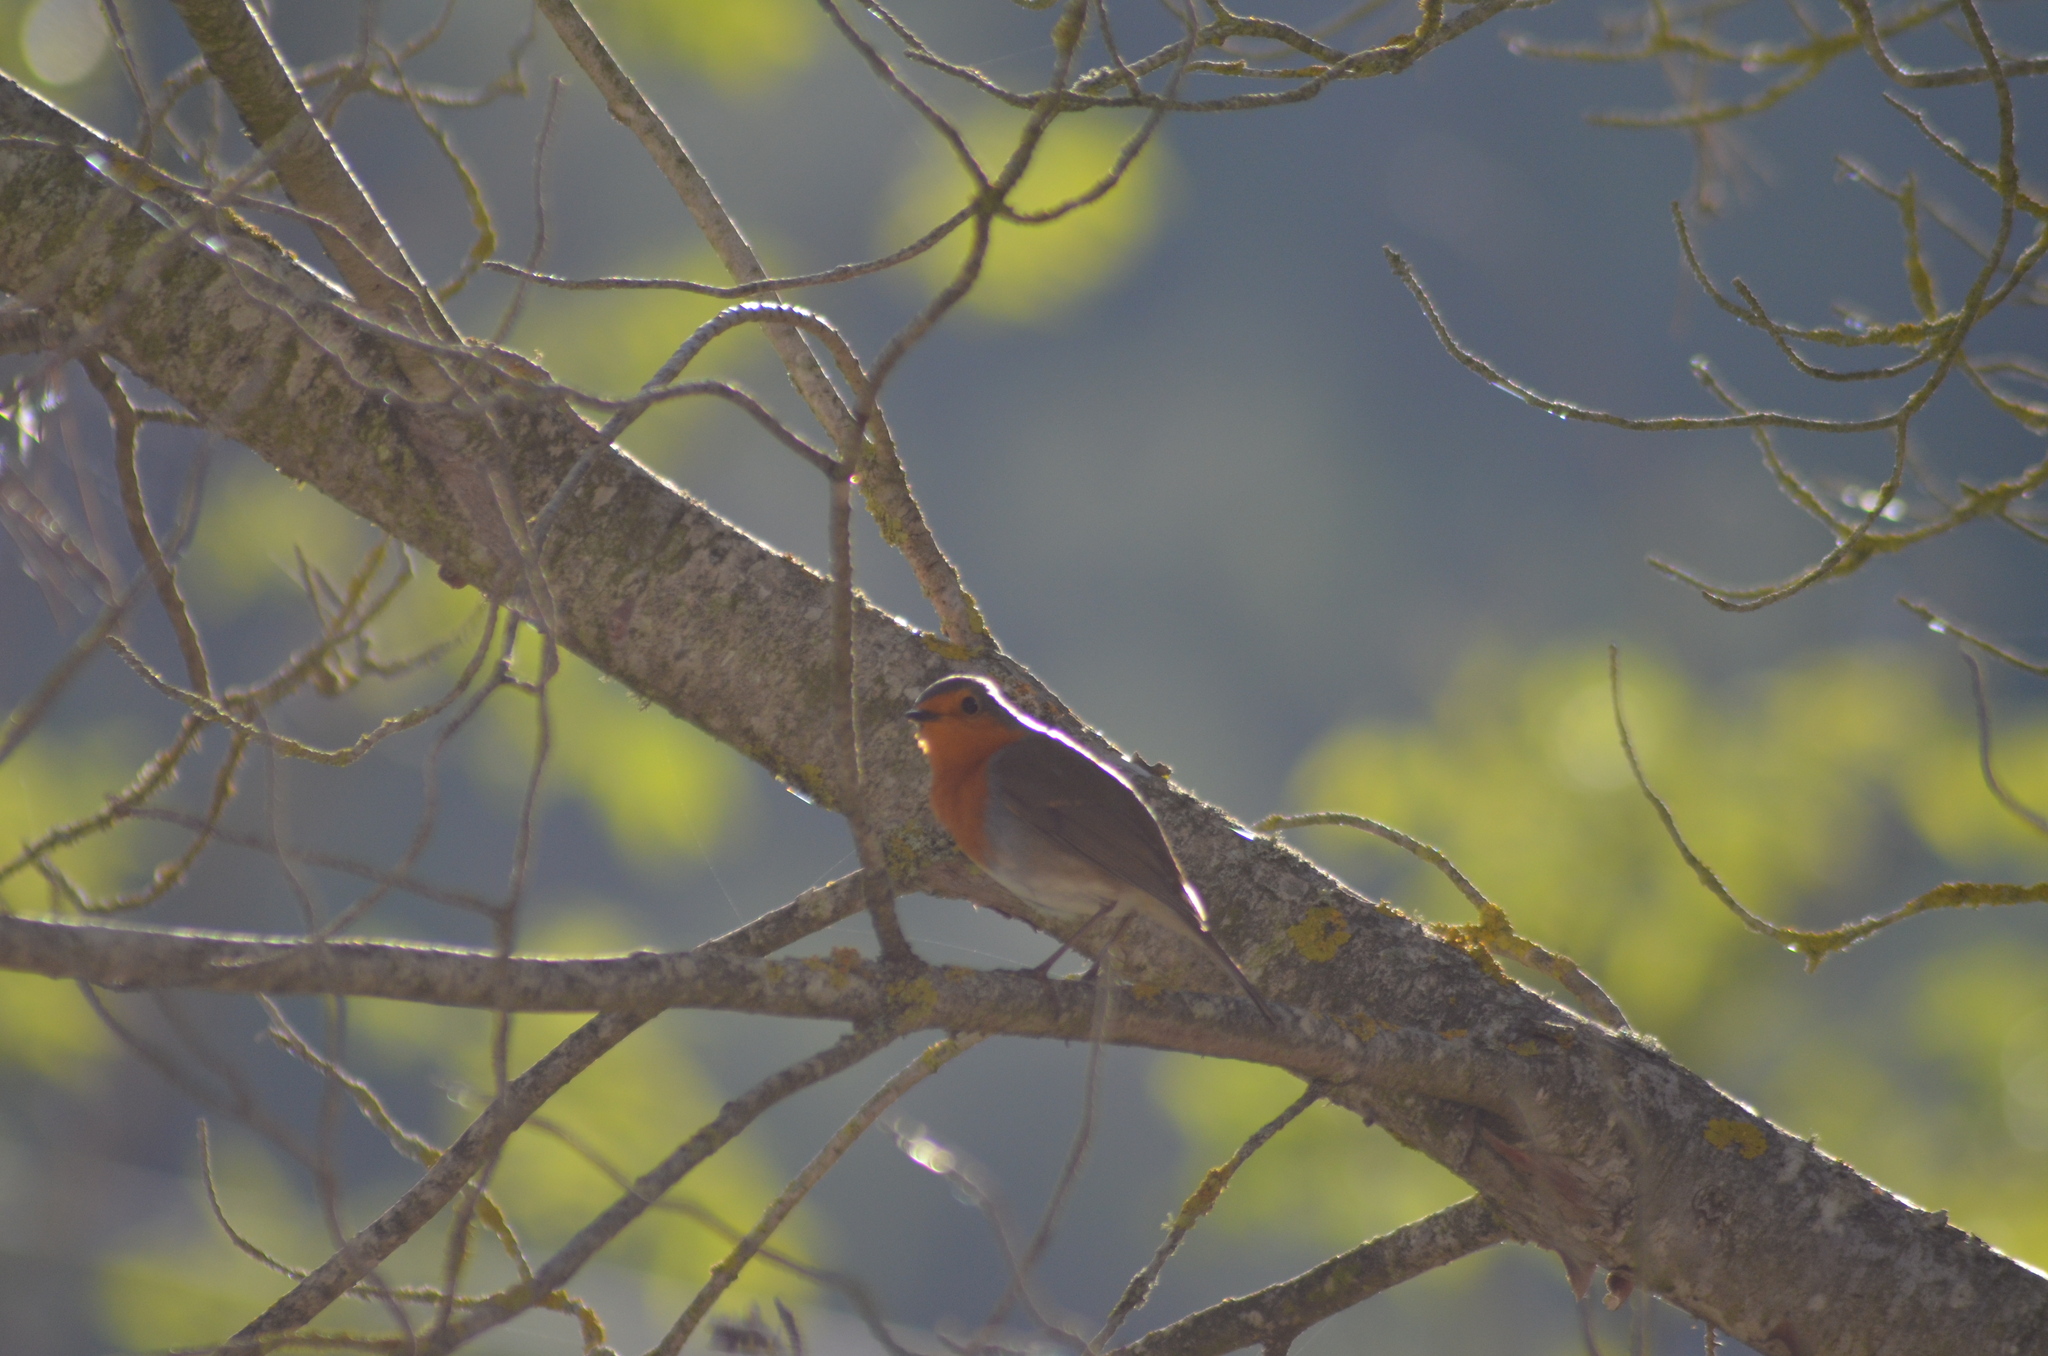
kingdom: Animalia
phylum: Chordata
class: Aves
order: Passeriformes
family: Muscicapidae
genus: Erithacus
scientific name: Erithacus rubecula
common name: European robin
